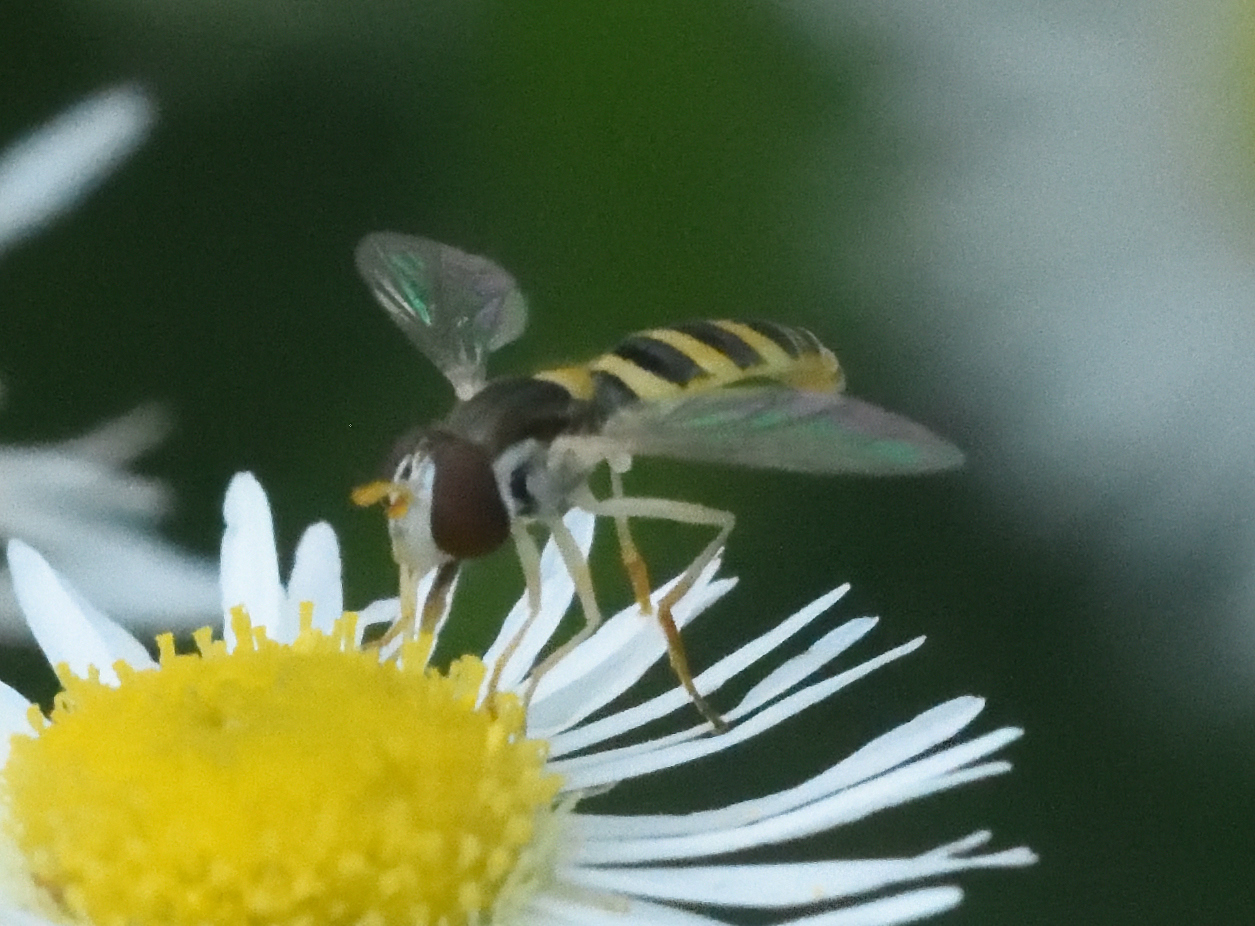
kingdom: Animalia
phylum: Arthropoda
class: Insecta
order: Diptera
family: Syrphidae
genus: Sphaerophoria
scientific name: Sphaerophoria contigua
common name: Tufted globetail
